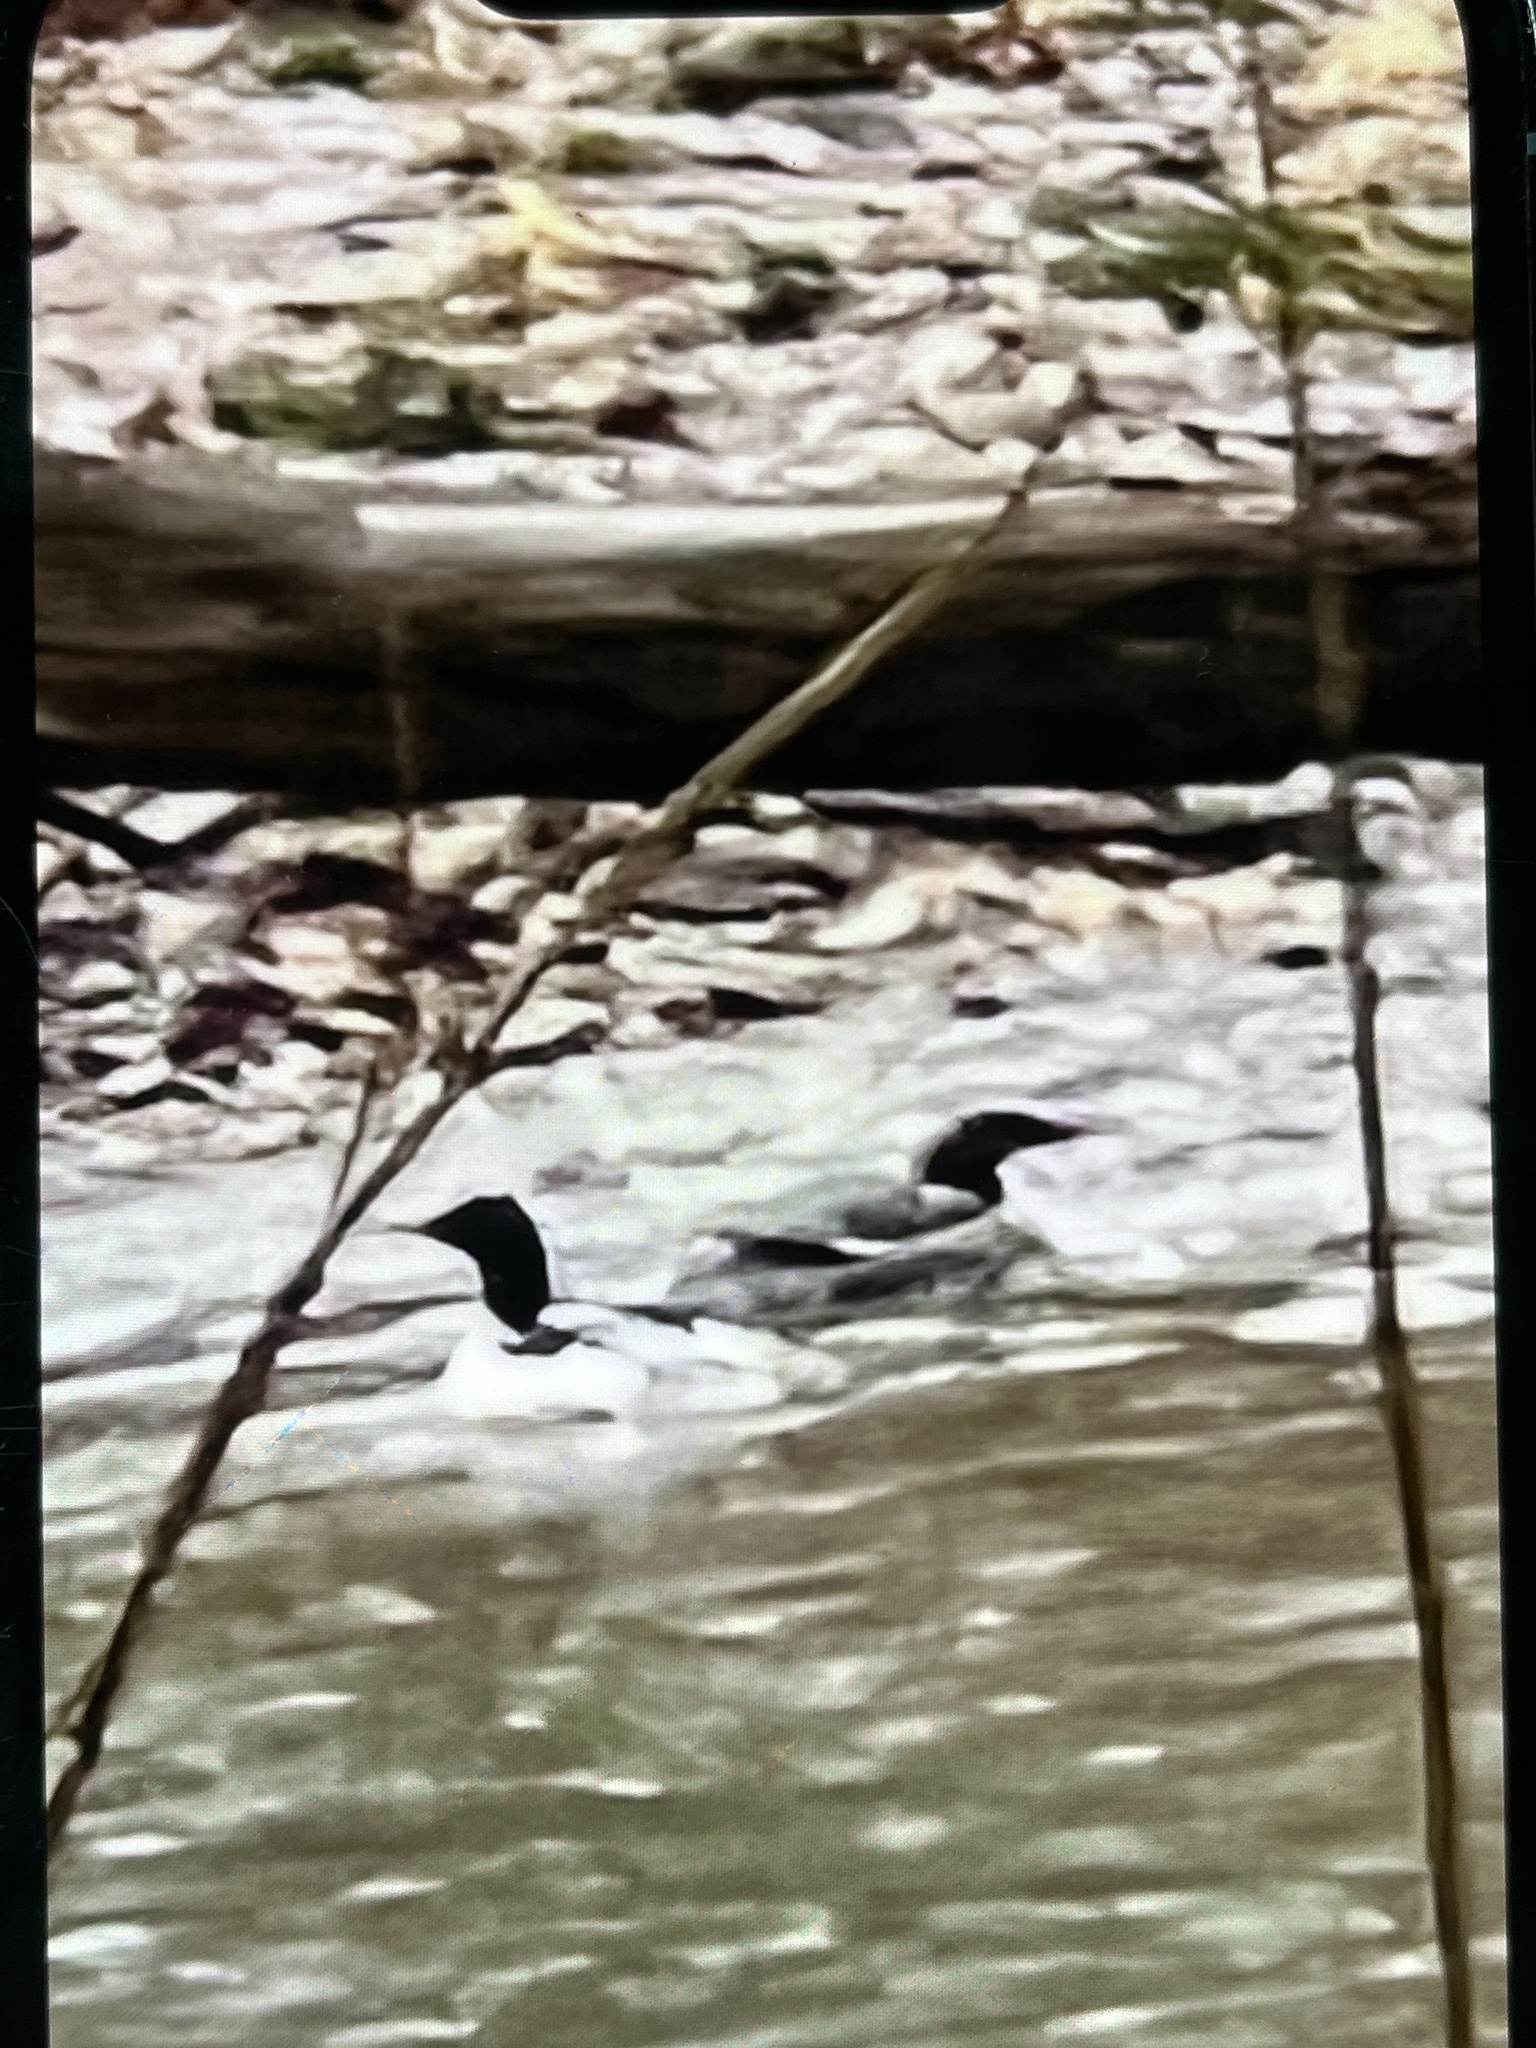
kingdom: Animalia
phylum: Chordata
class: Aves
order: Anseriformes
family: Anatidae
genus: Mergus
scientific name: Mergus merganser
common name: Common merganser
